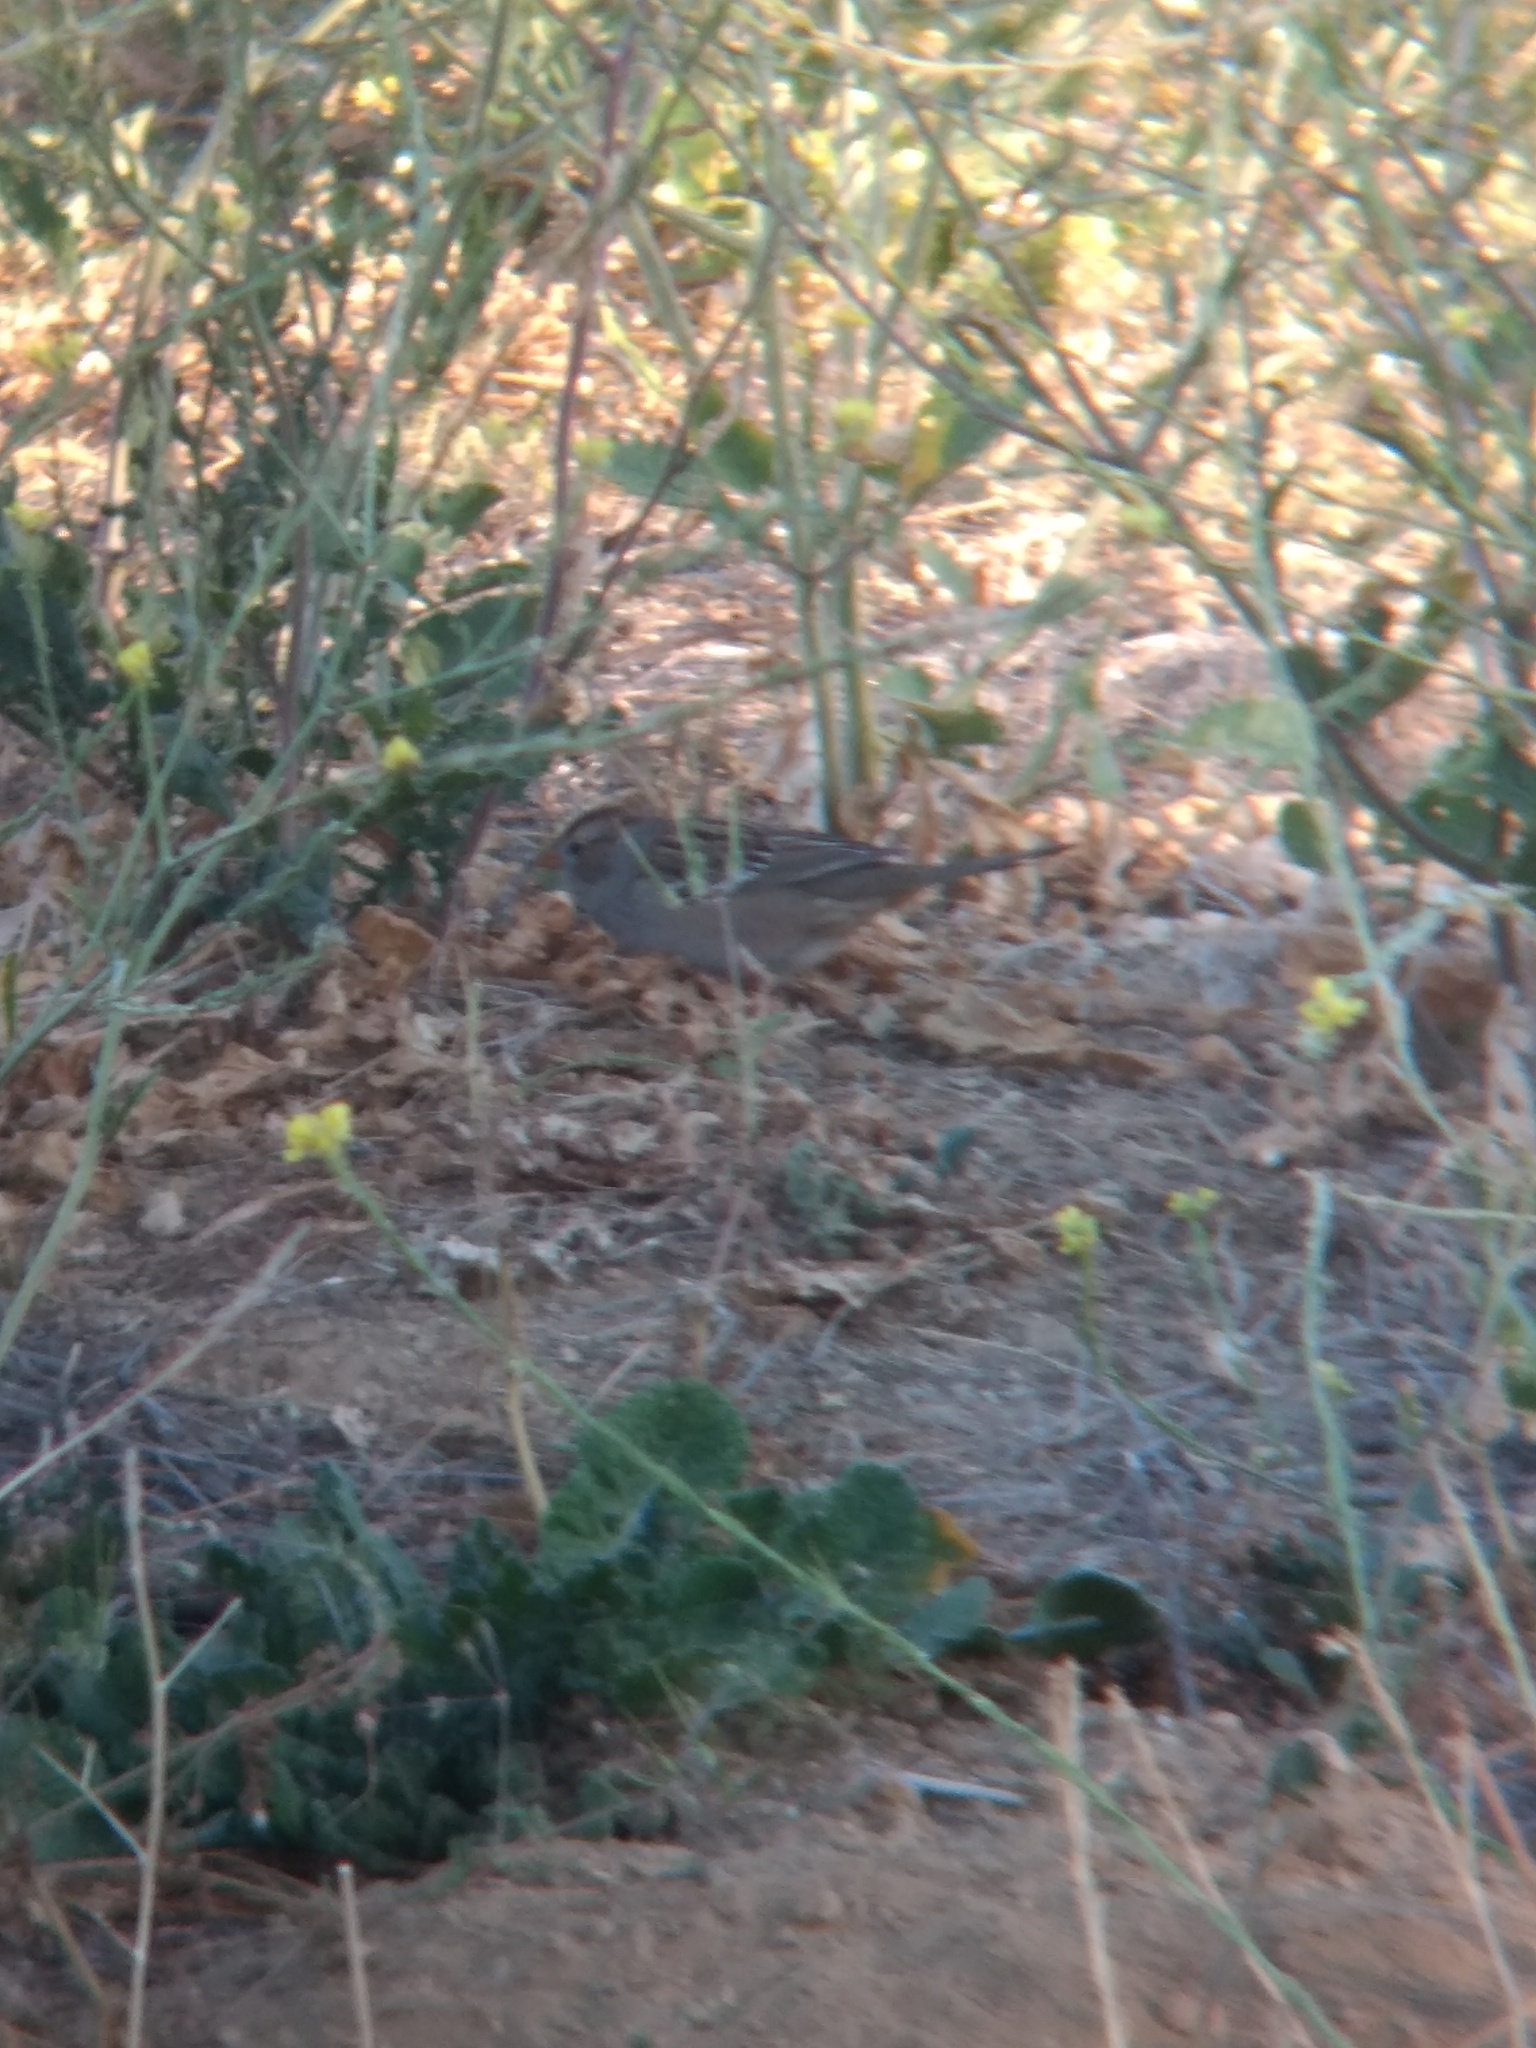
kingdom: Animalia
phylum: Chordata
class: Aves
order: Passeriformes
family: Passerellidae
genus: Zonotrichia
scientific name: Zonotrichia leucophrys
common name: White-crowned sparrow
